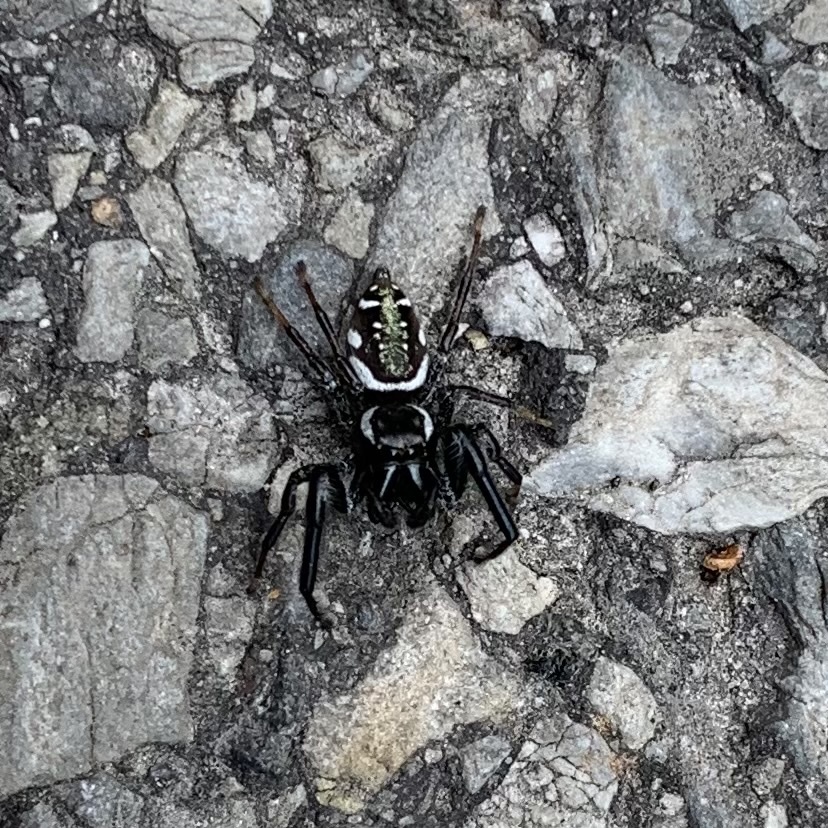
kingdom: Animalia
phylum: Arthropoda
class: Arachnida
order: Araneae
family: Salticidae
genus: Paraphidippus
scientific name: Paraphidippus aurantius
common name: Jumping spiders
